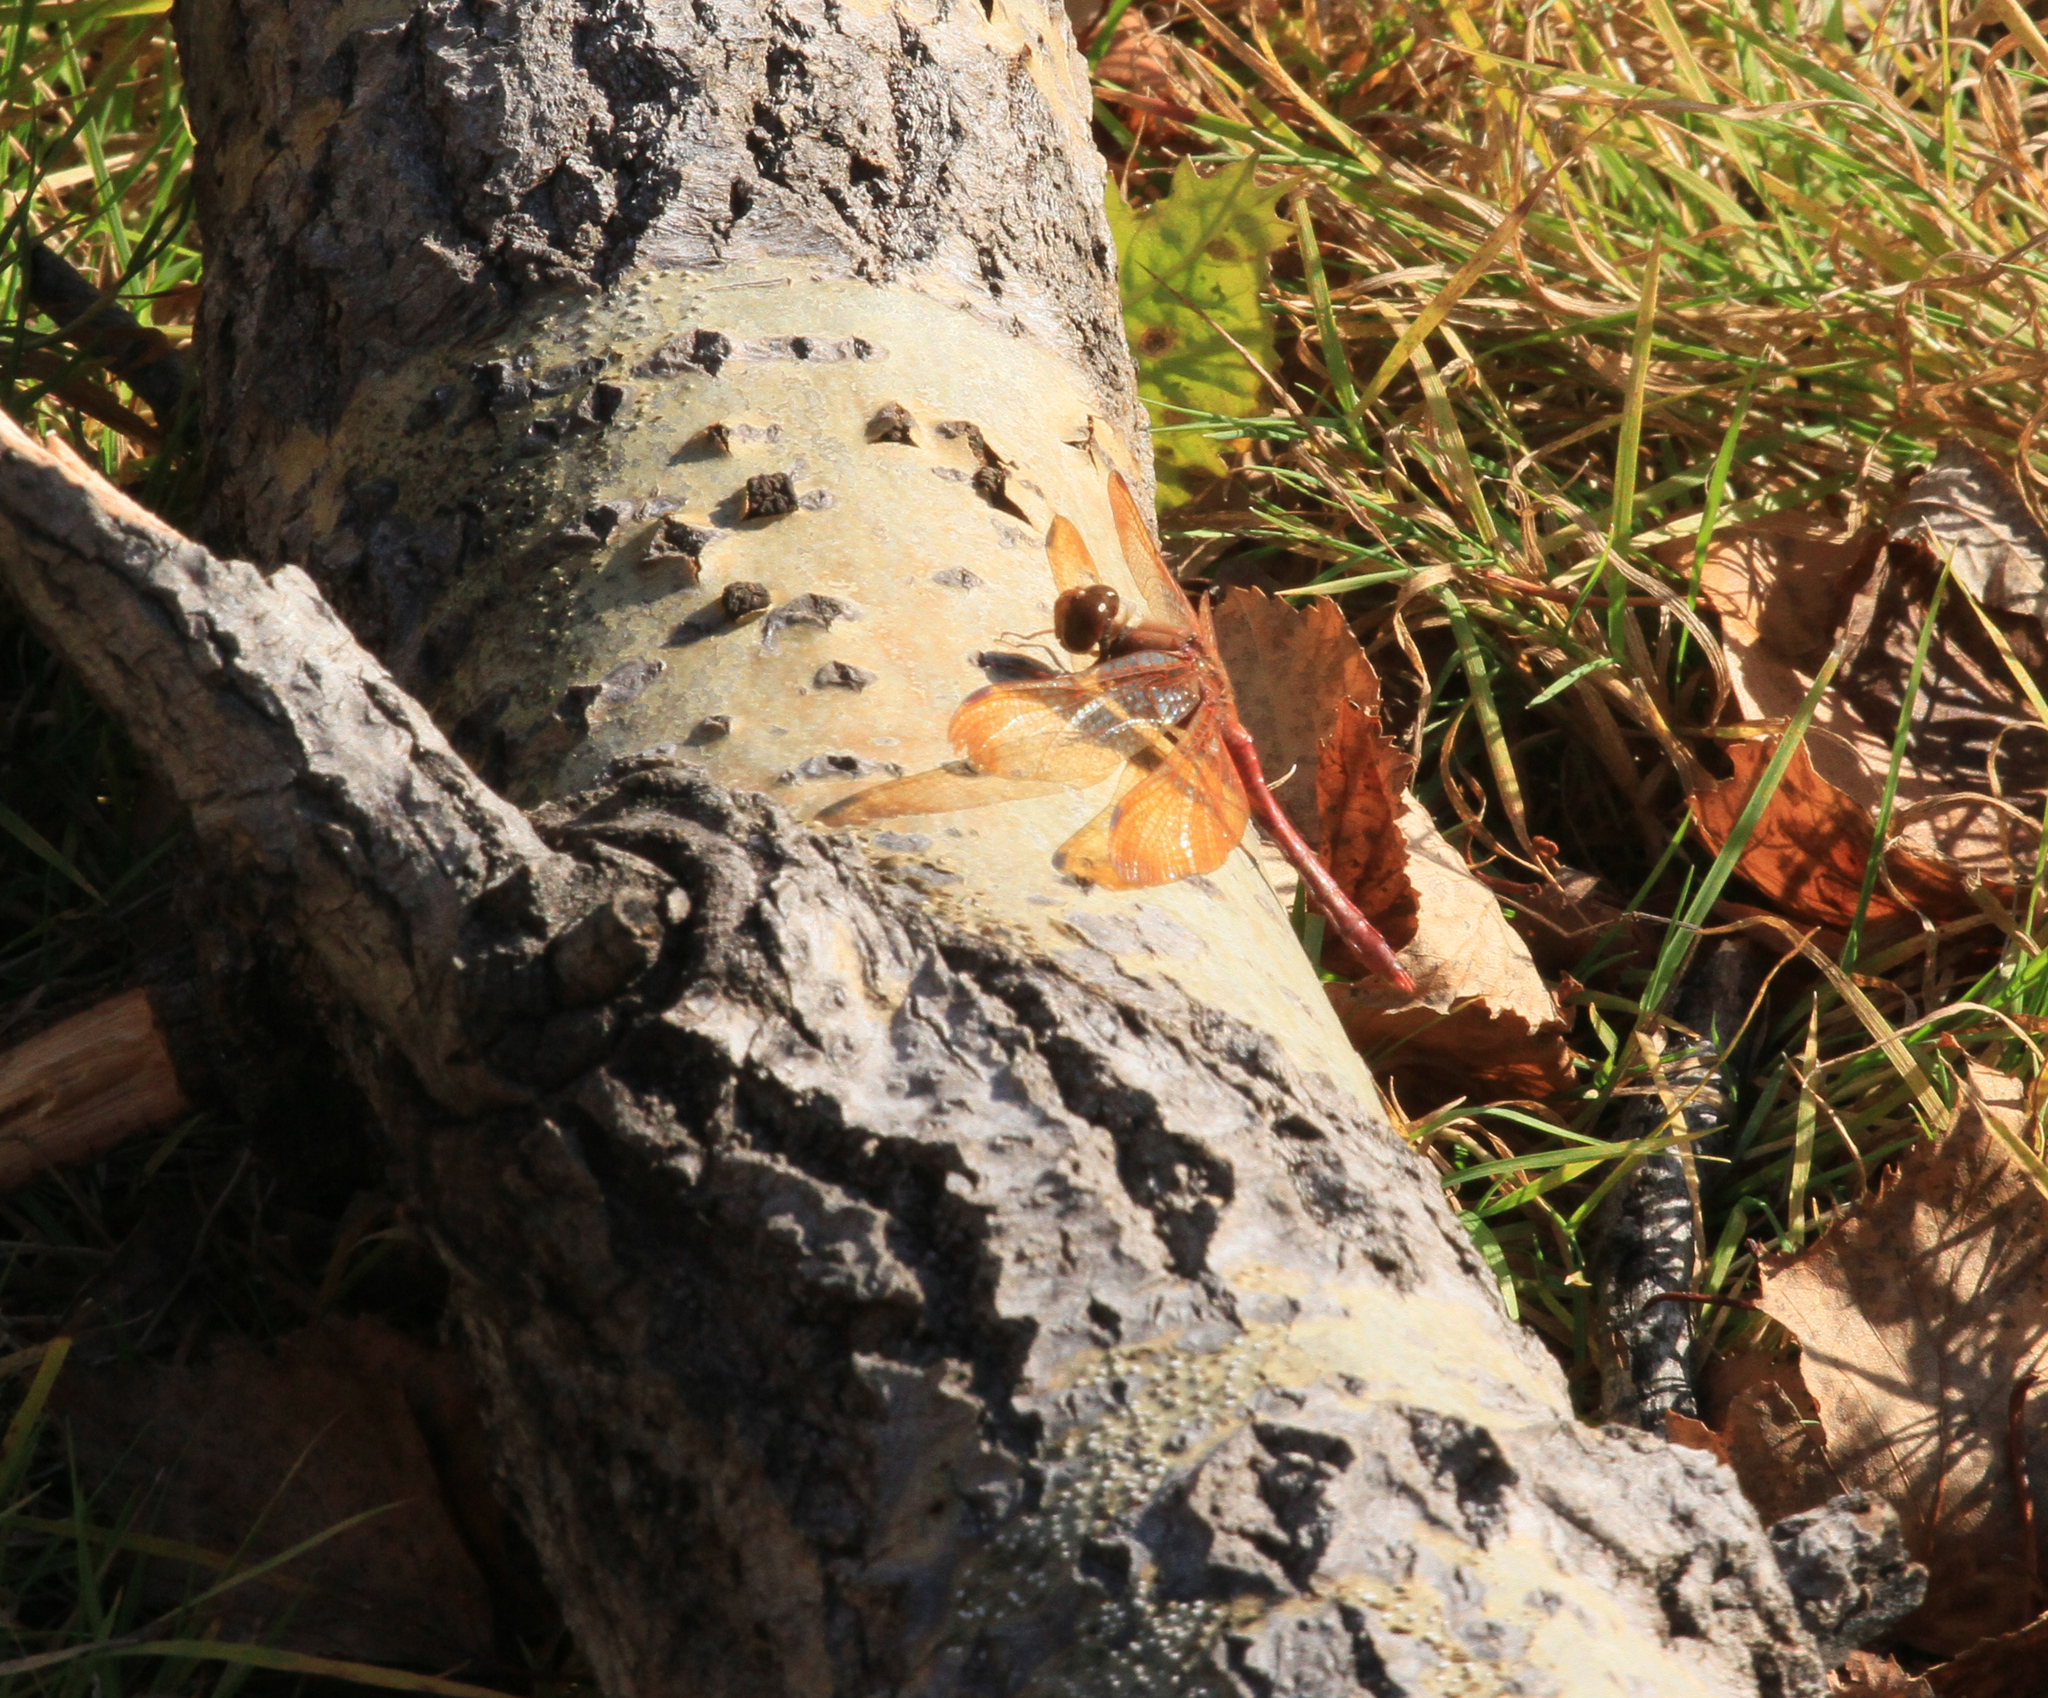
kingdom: Animalia
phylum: Arthropoda
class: Insecta
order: Odonata
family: Libellulidae
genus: Sympetrum
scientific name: Sympetrum croceolum
